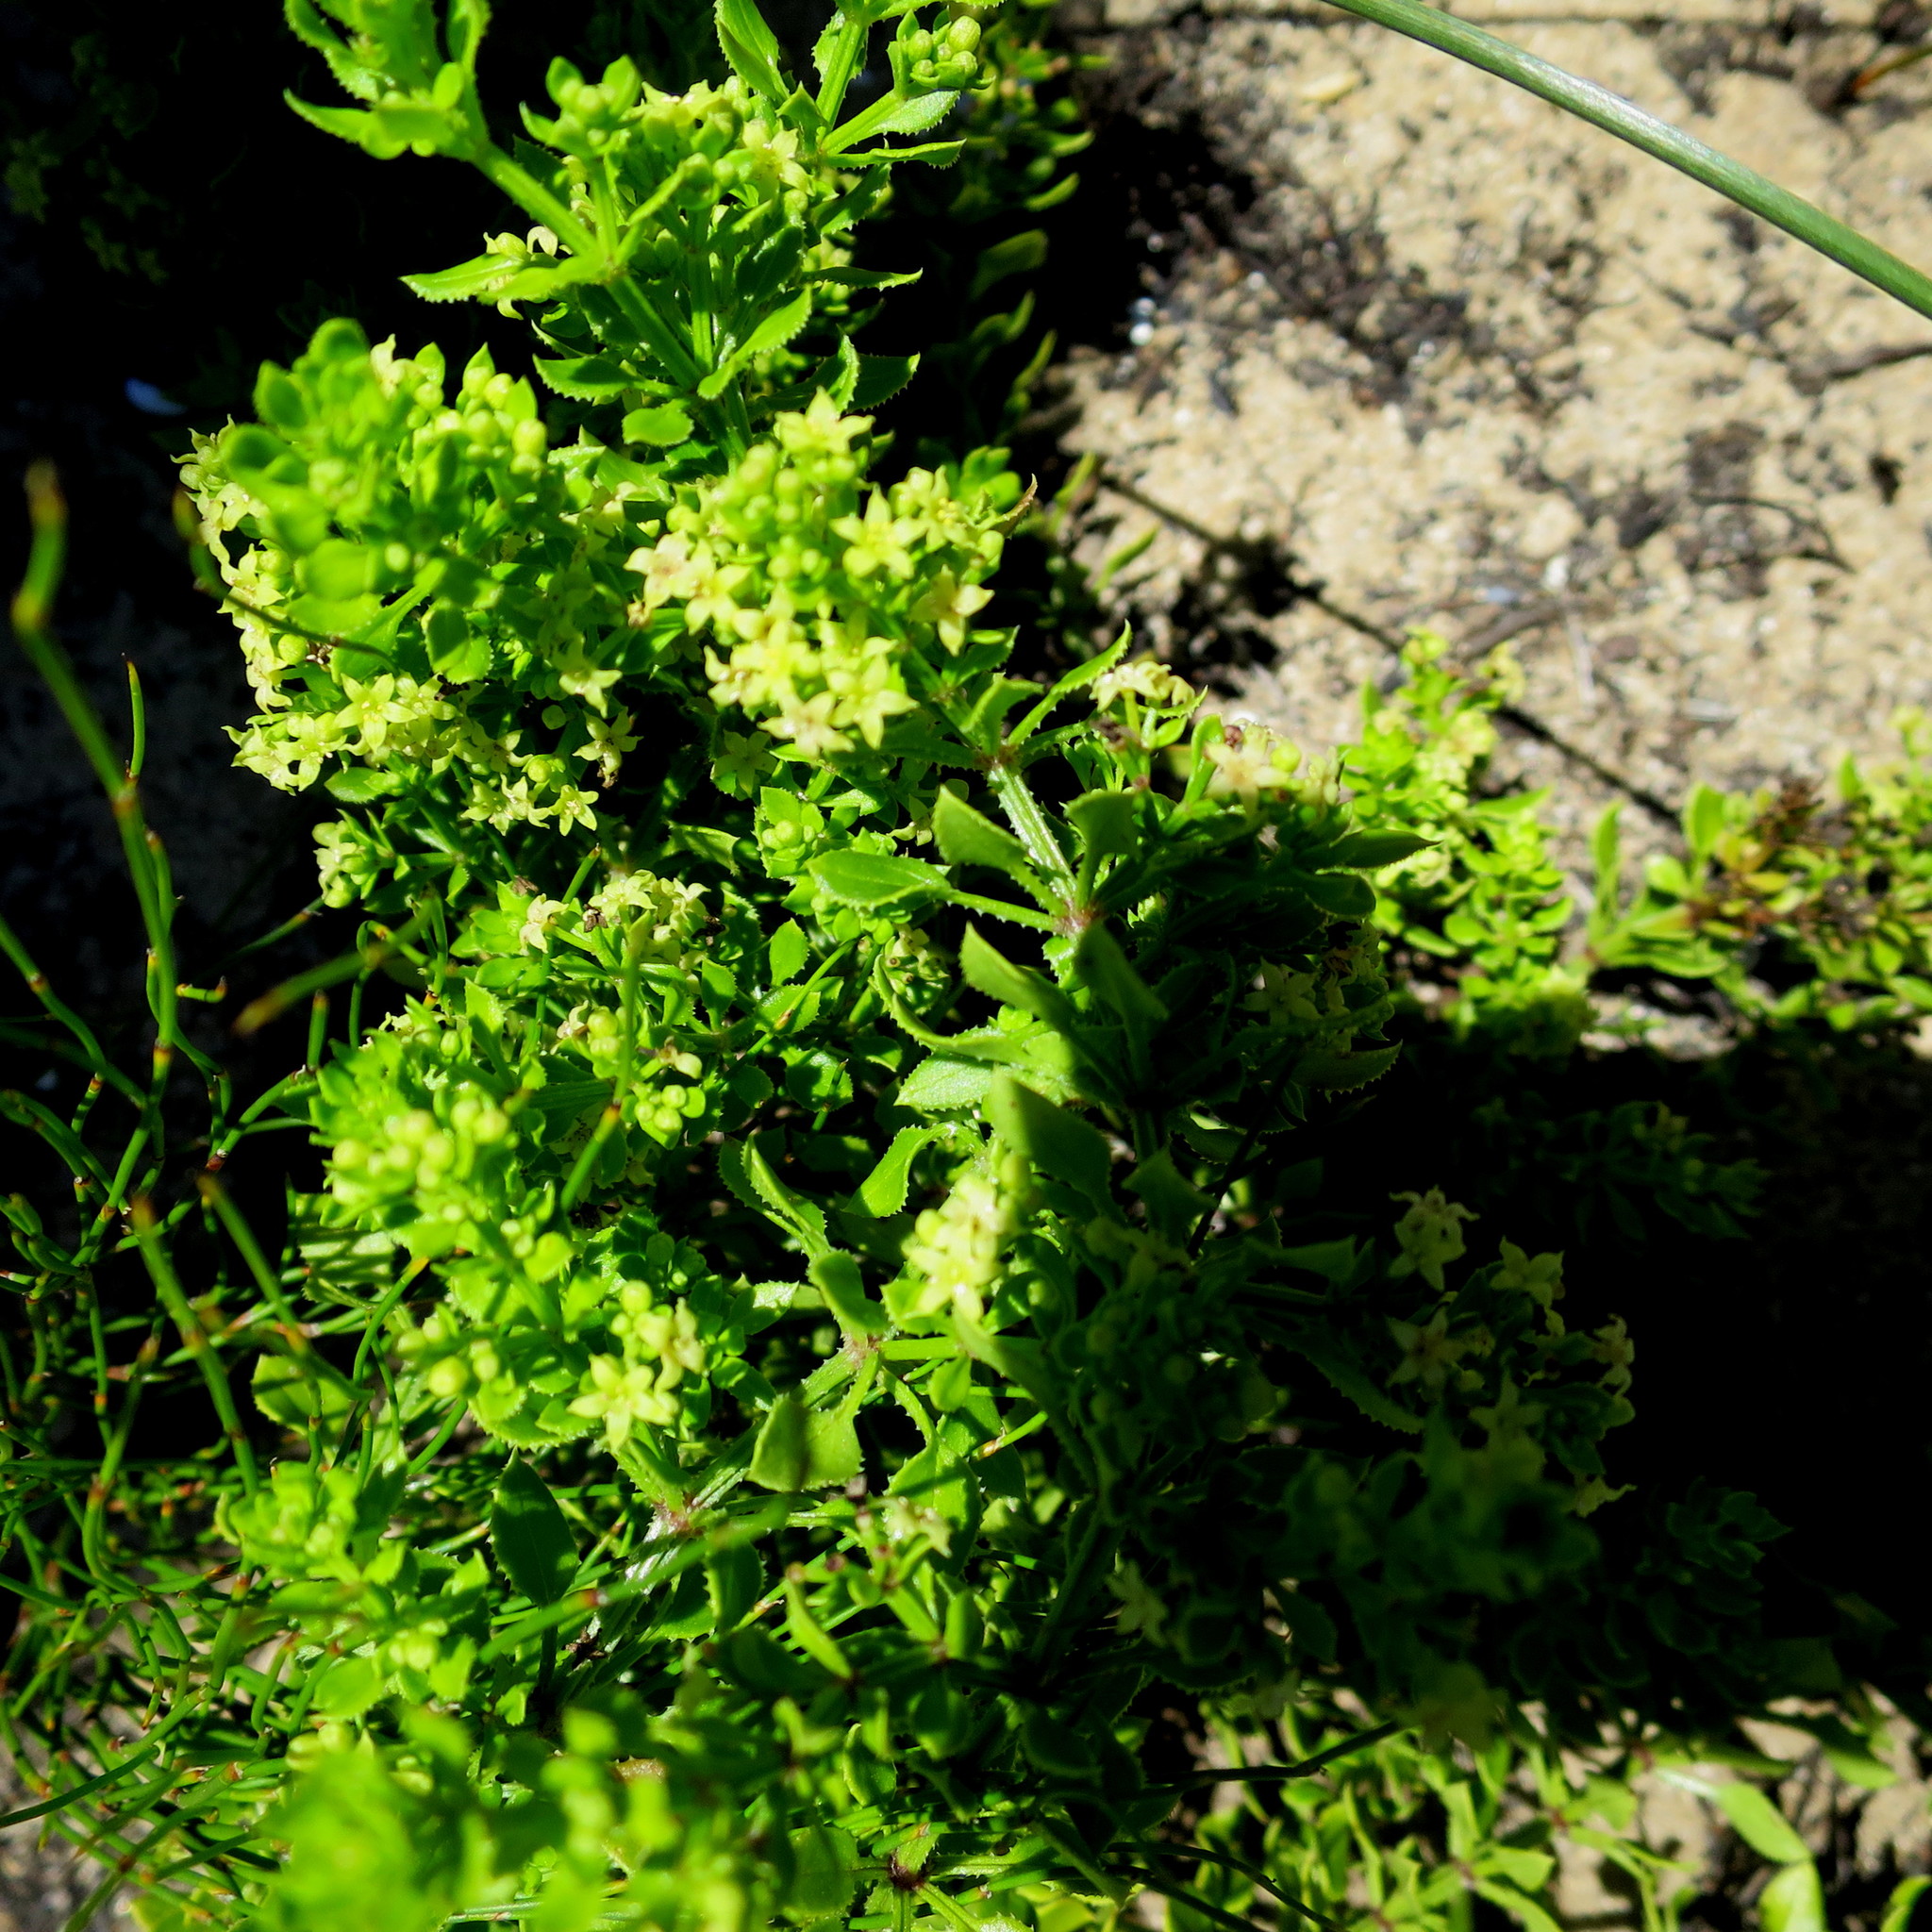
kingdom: Plantae
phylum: Tracheophyta
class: Magnoliopsida
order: Gentianales
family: Rubiaceae
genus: Rubia
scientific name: Rubia petiolaris
